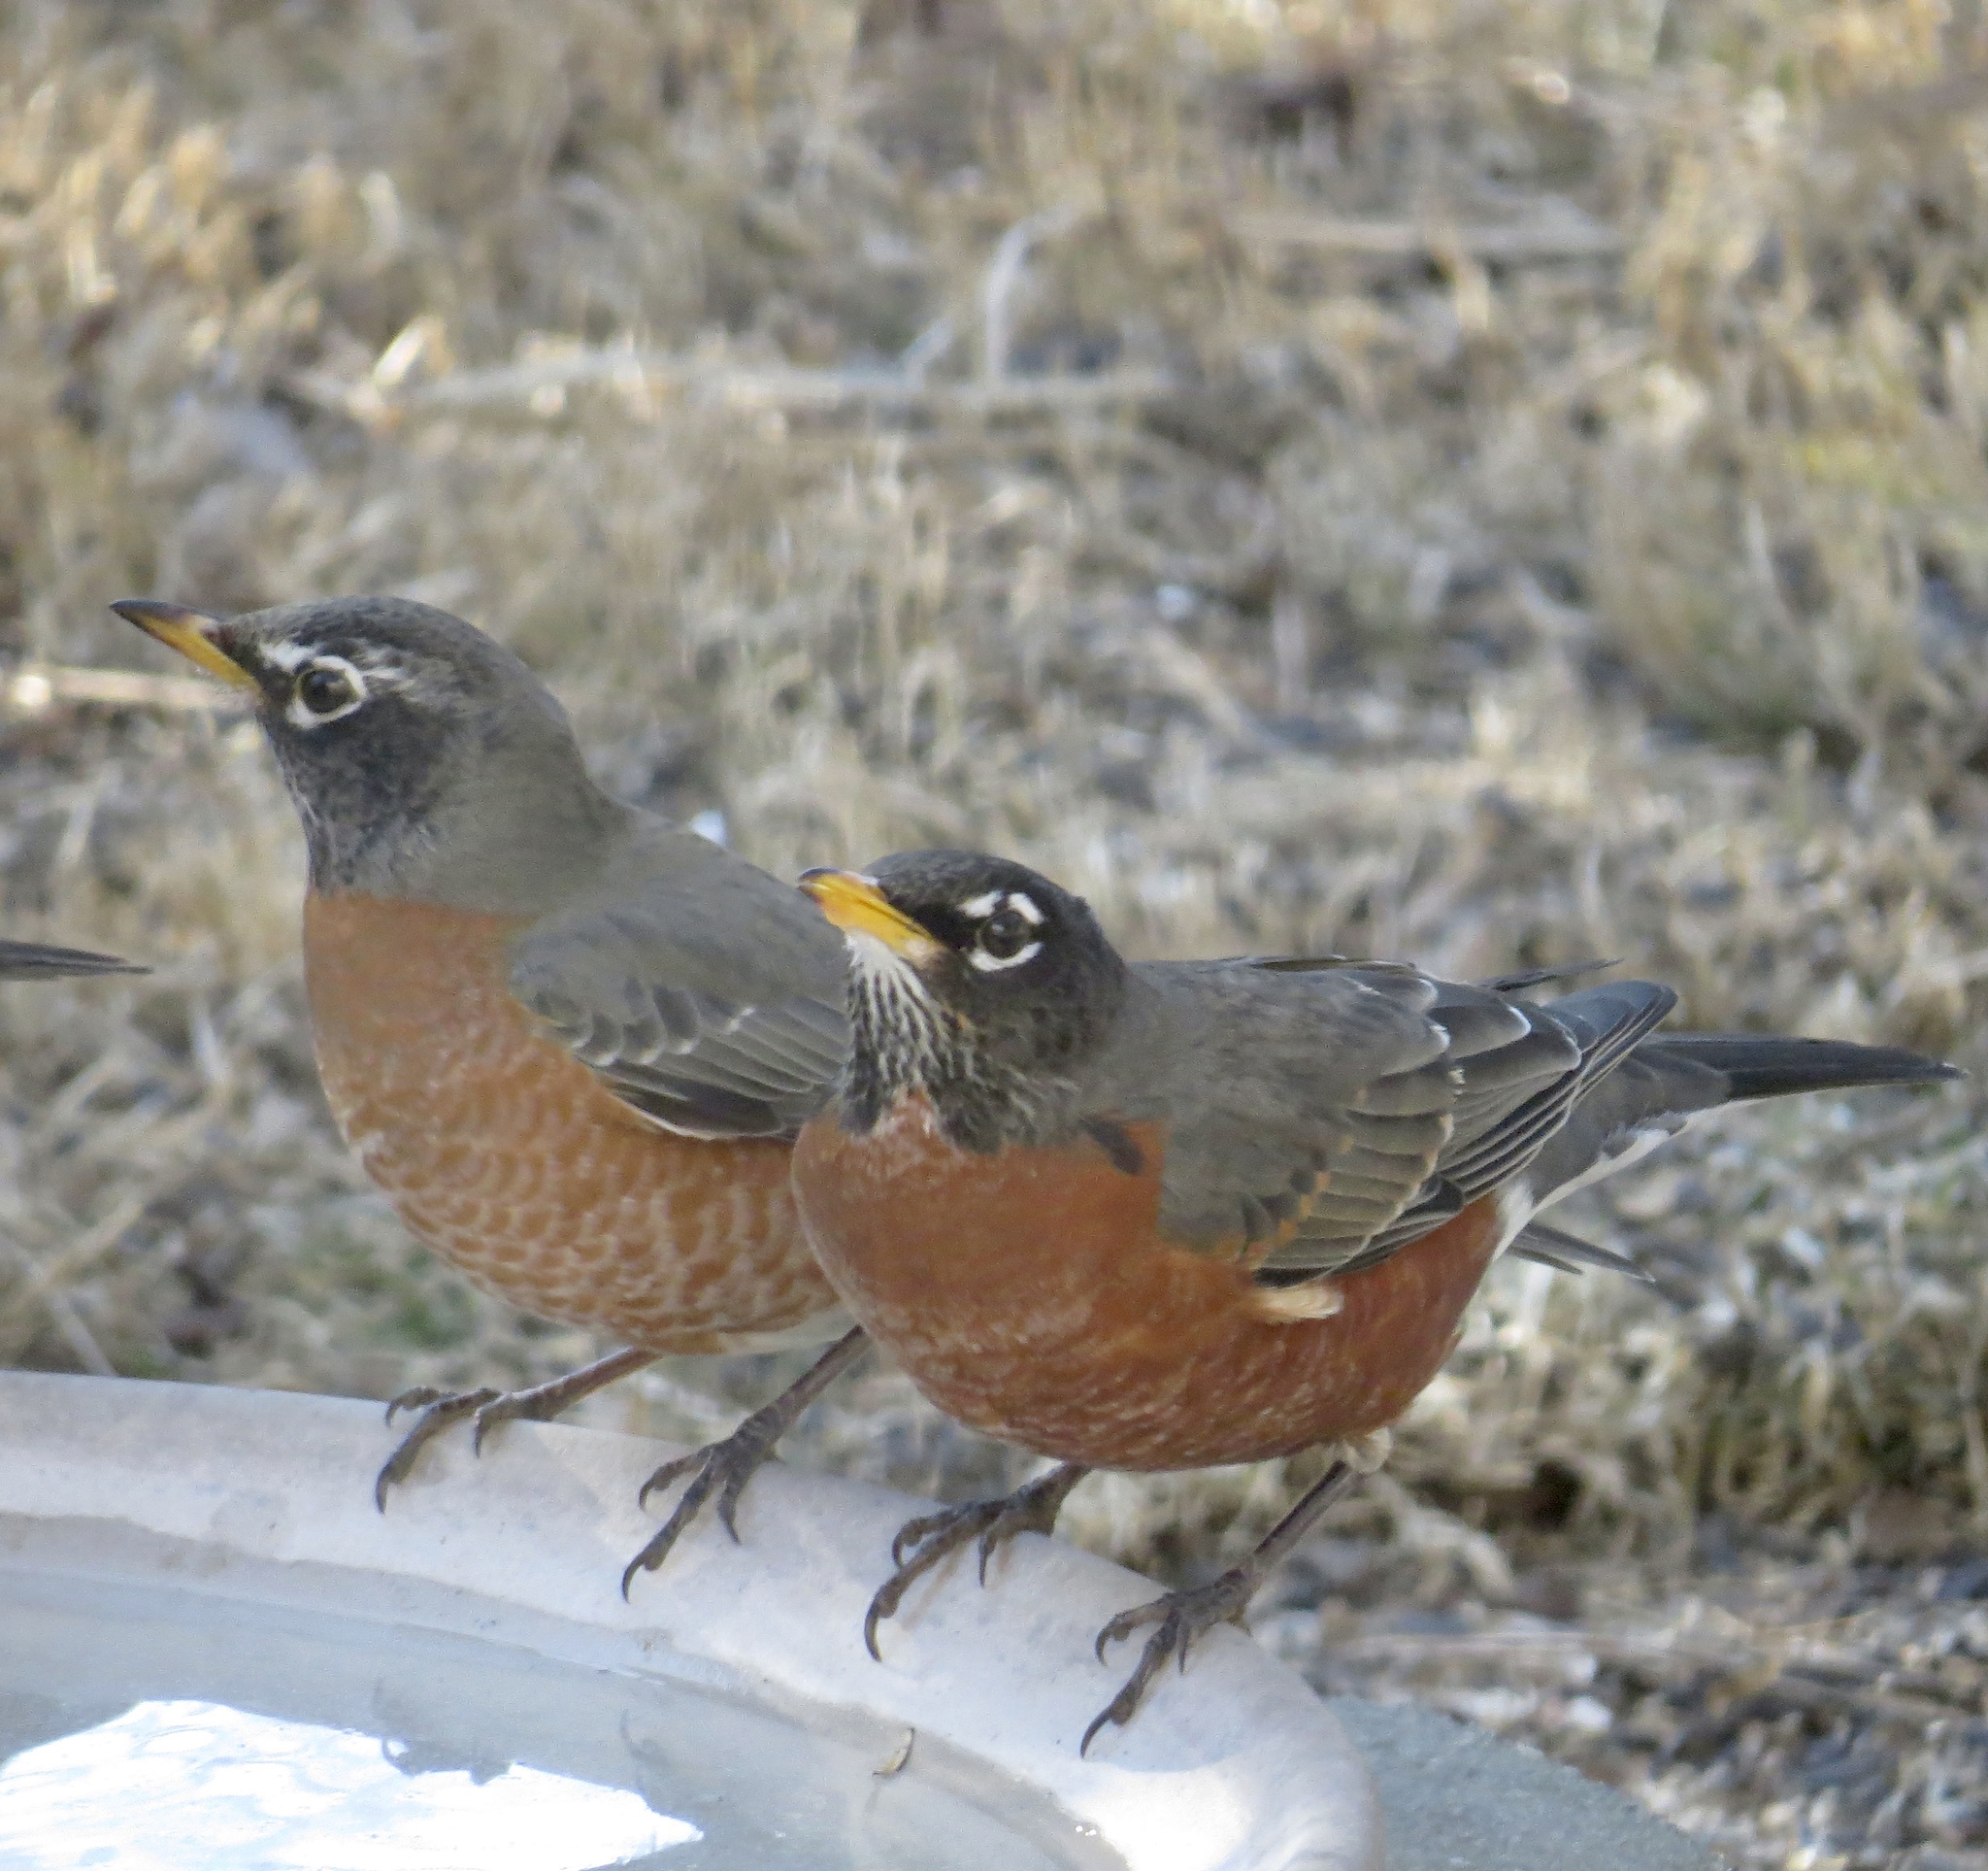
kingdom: Animalia
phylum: Chordata
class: Aves
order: Passeriformes
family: Turdidae
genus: Turdus
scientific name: Turdus migratorius
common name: American robin
